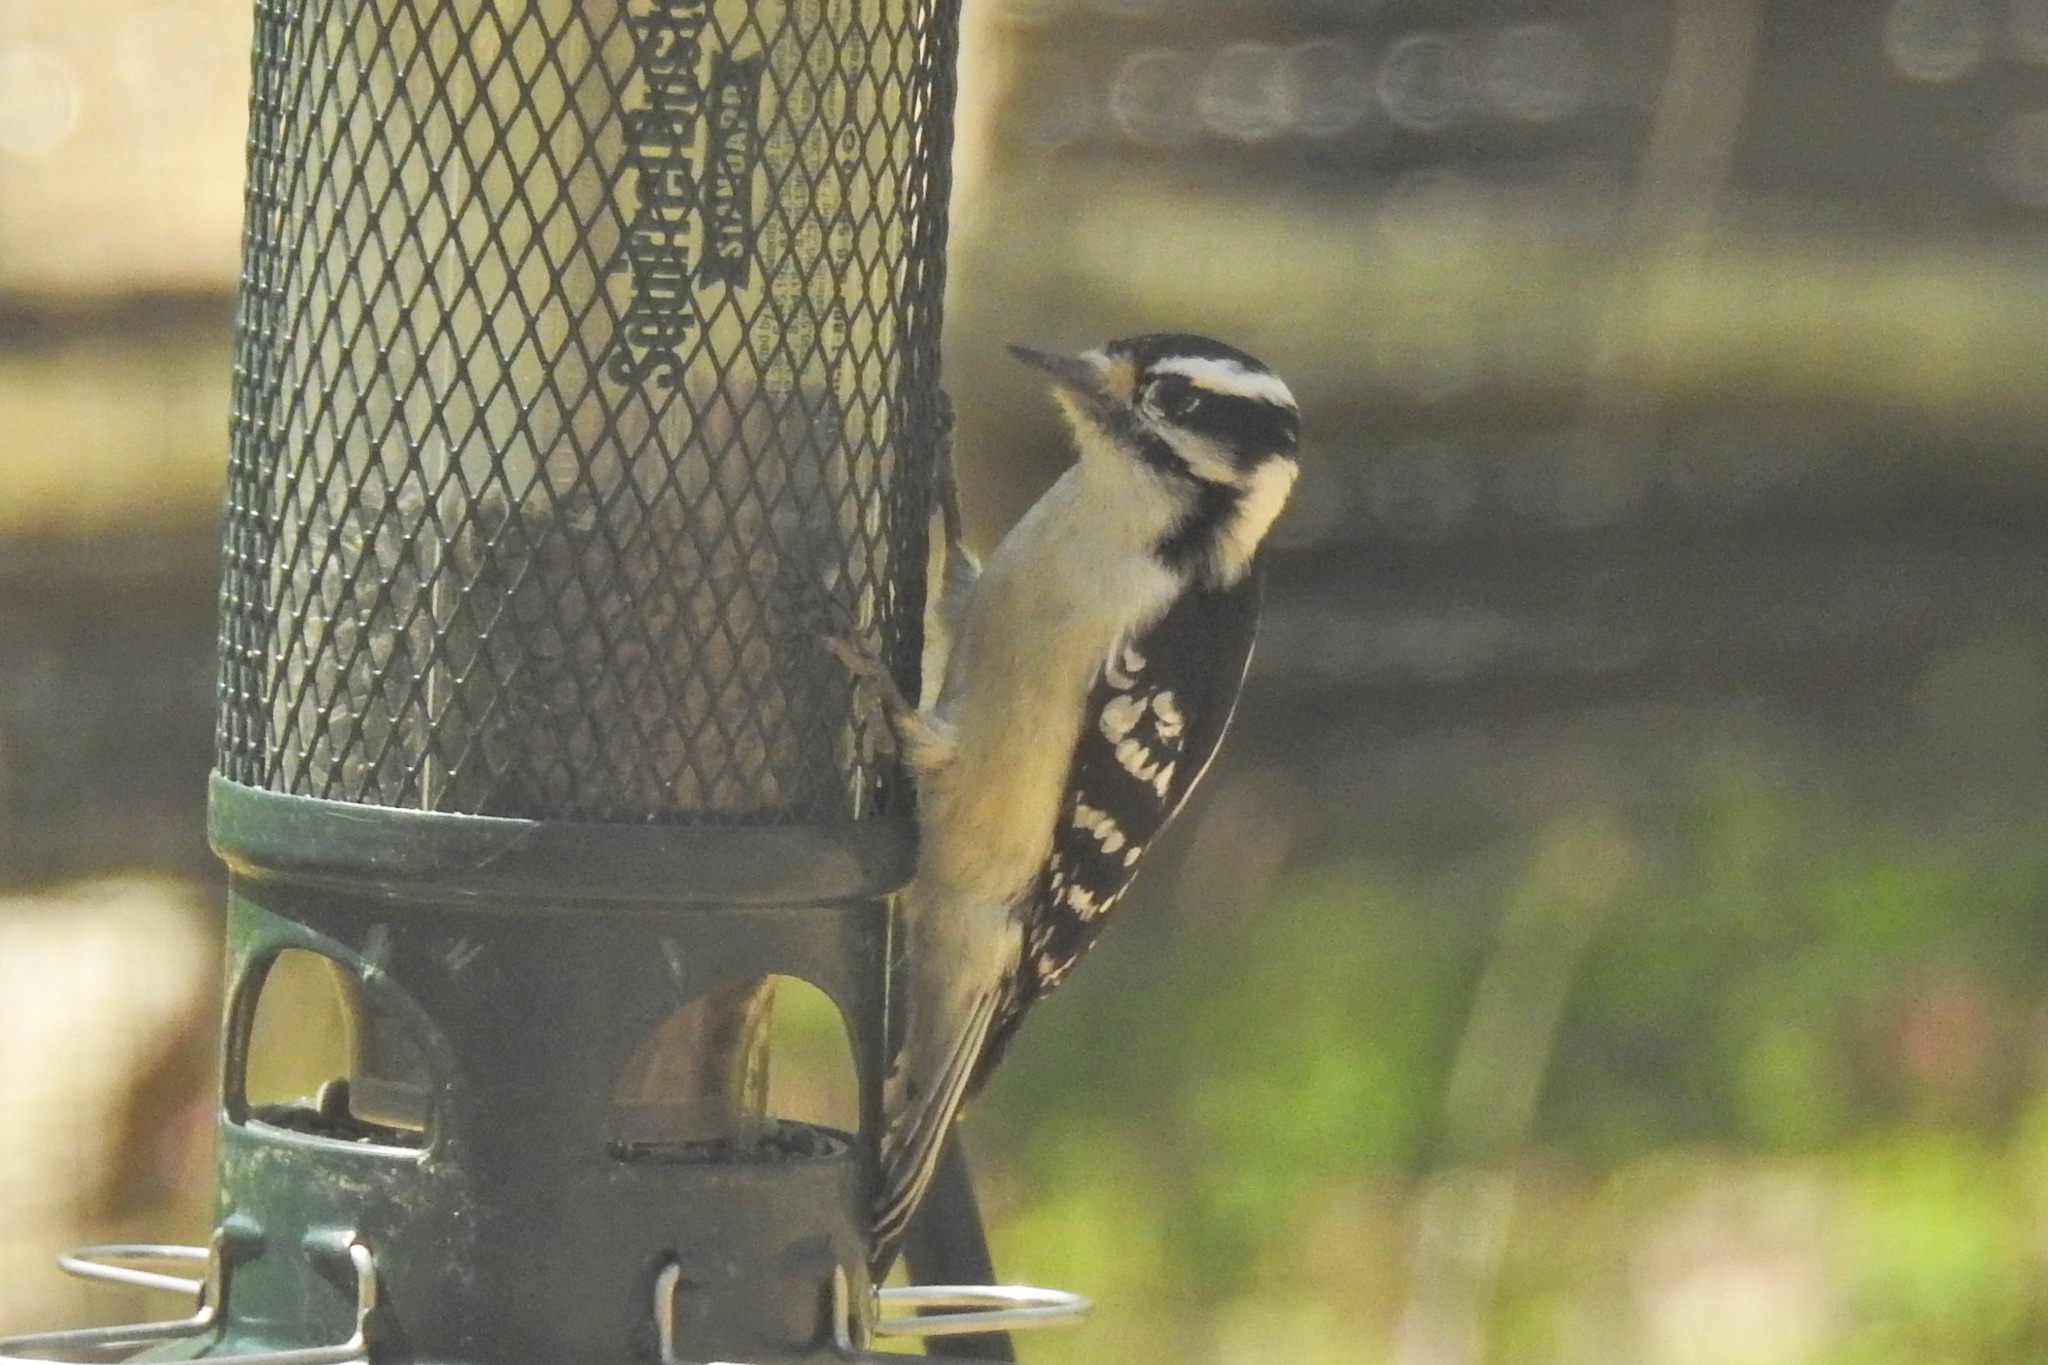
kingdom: Animalia
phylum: Chordata
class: Aves
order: Piciformes
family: Picidae
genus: Dryobates
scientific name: Dryobates pubescens
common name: Downy woodpecker
